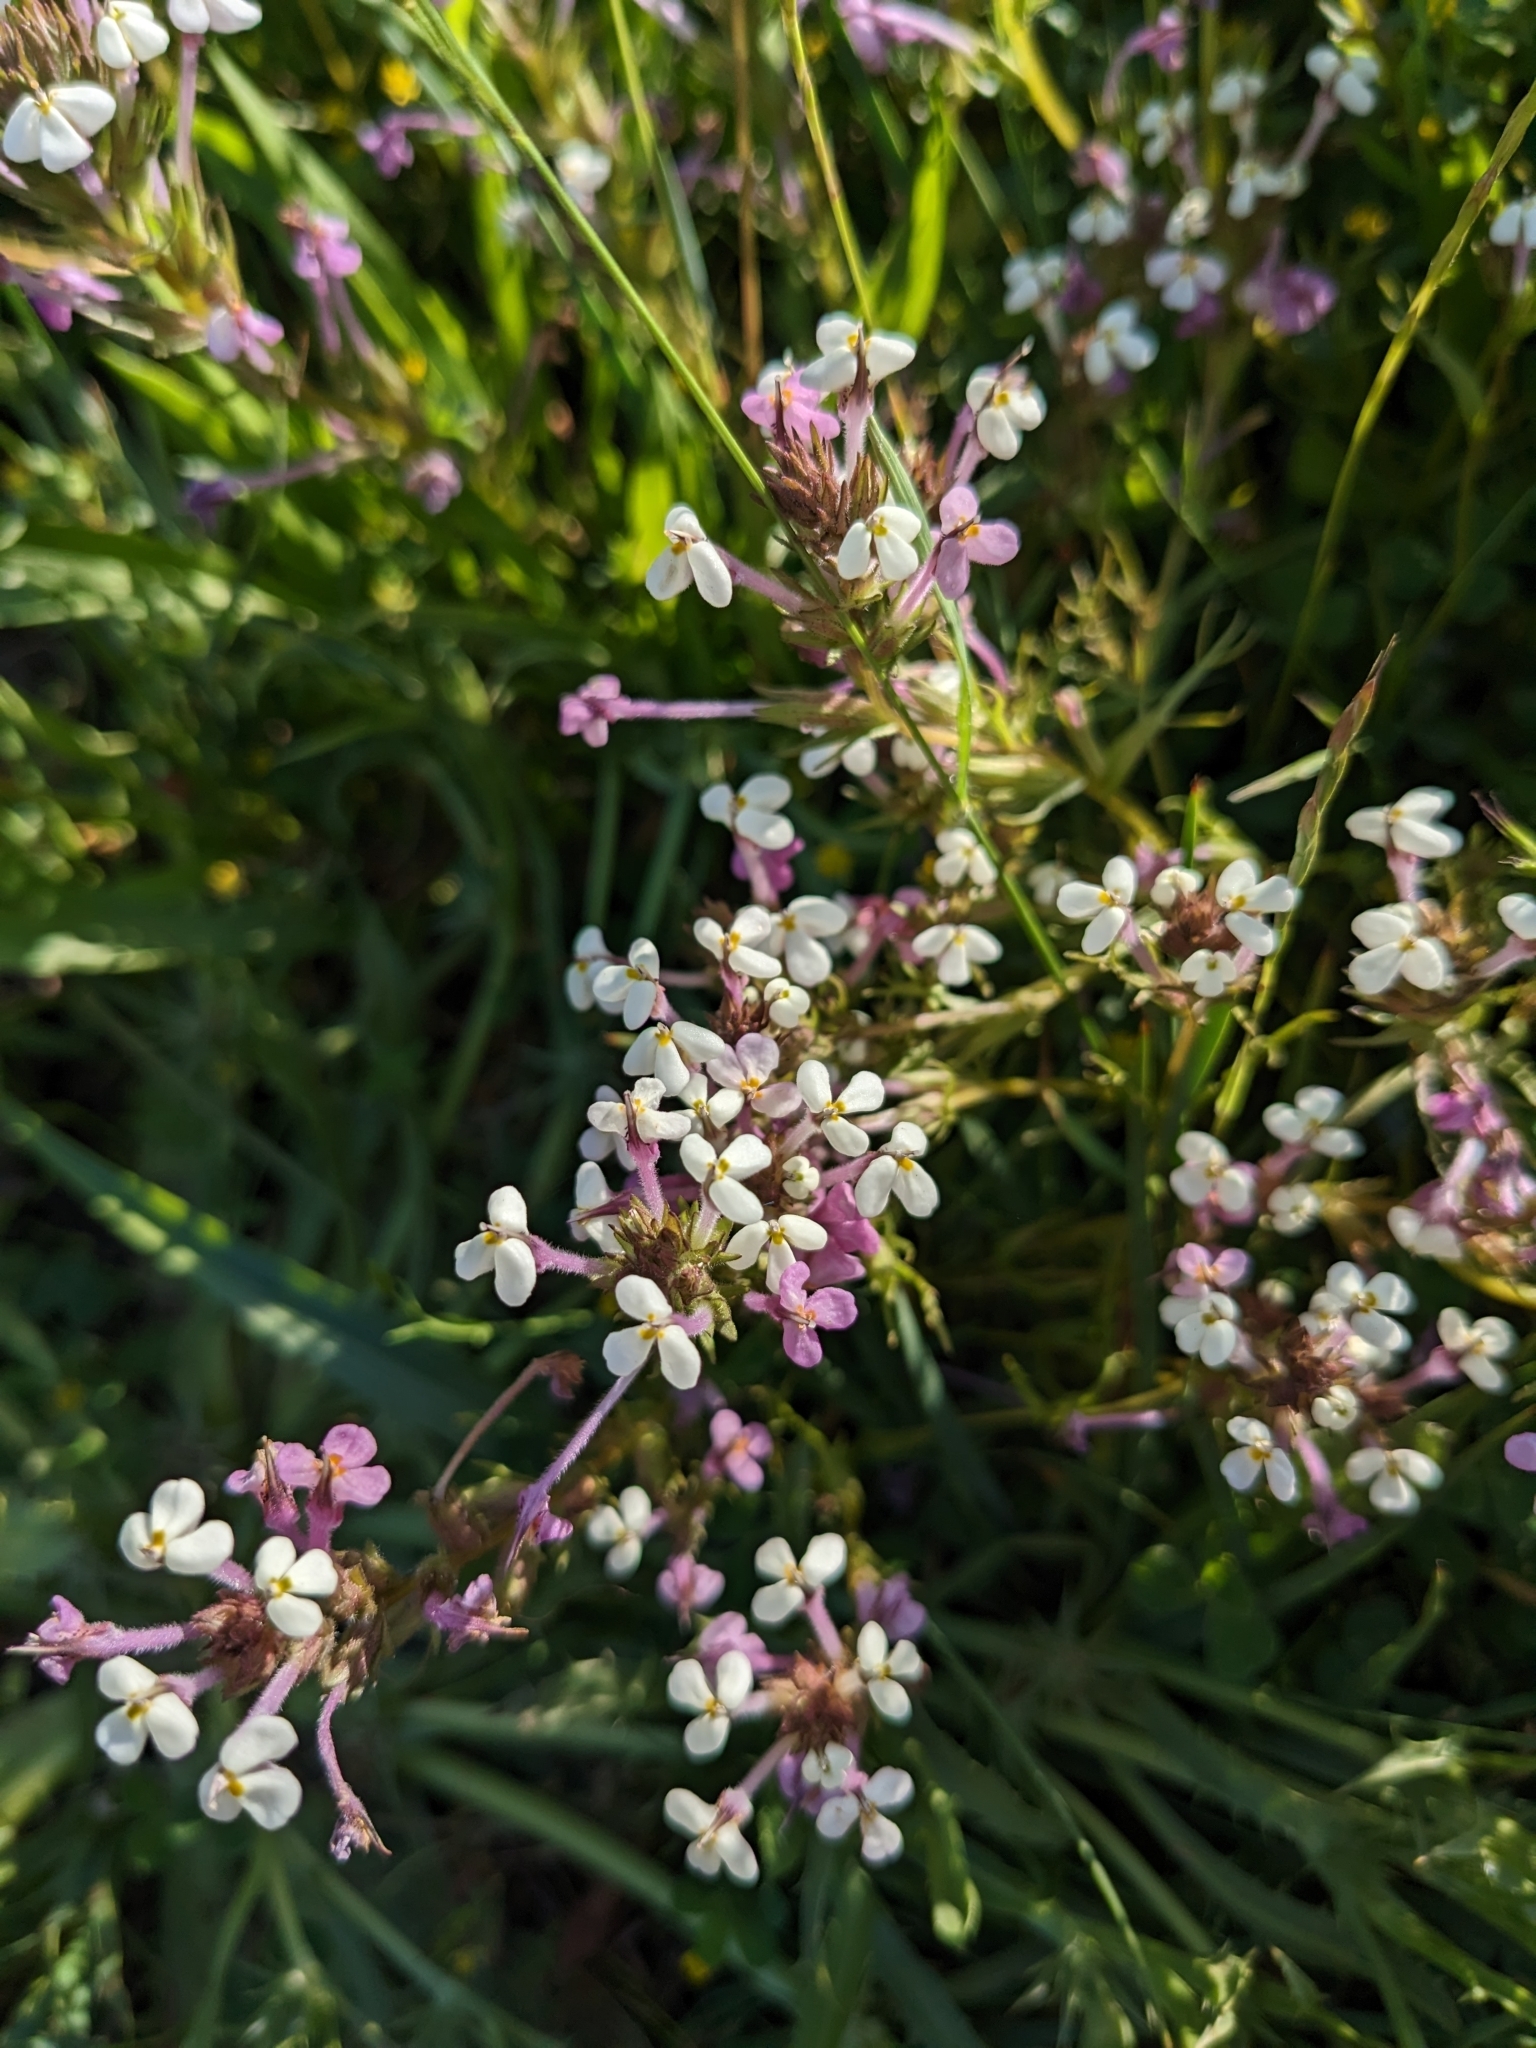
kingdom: Plantae
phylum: Tracheophyta
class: Magnoliopsida
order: Lamiales
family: Orobanchaceae
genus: Triphysaria
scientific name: Triphysaria versicolor
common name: Bearded false owl-clover
